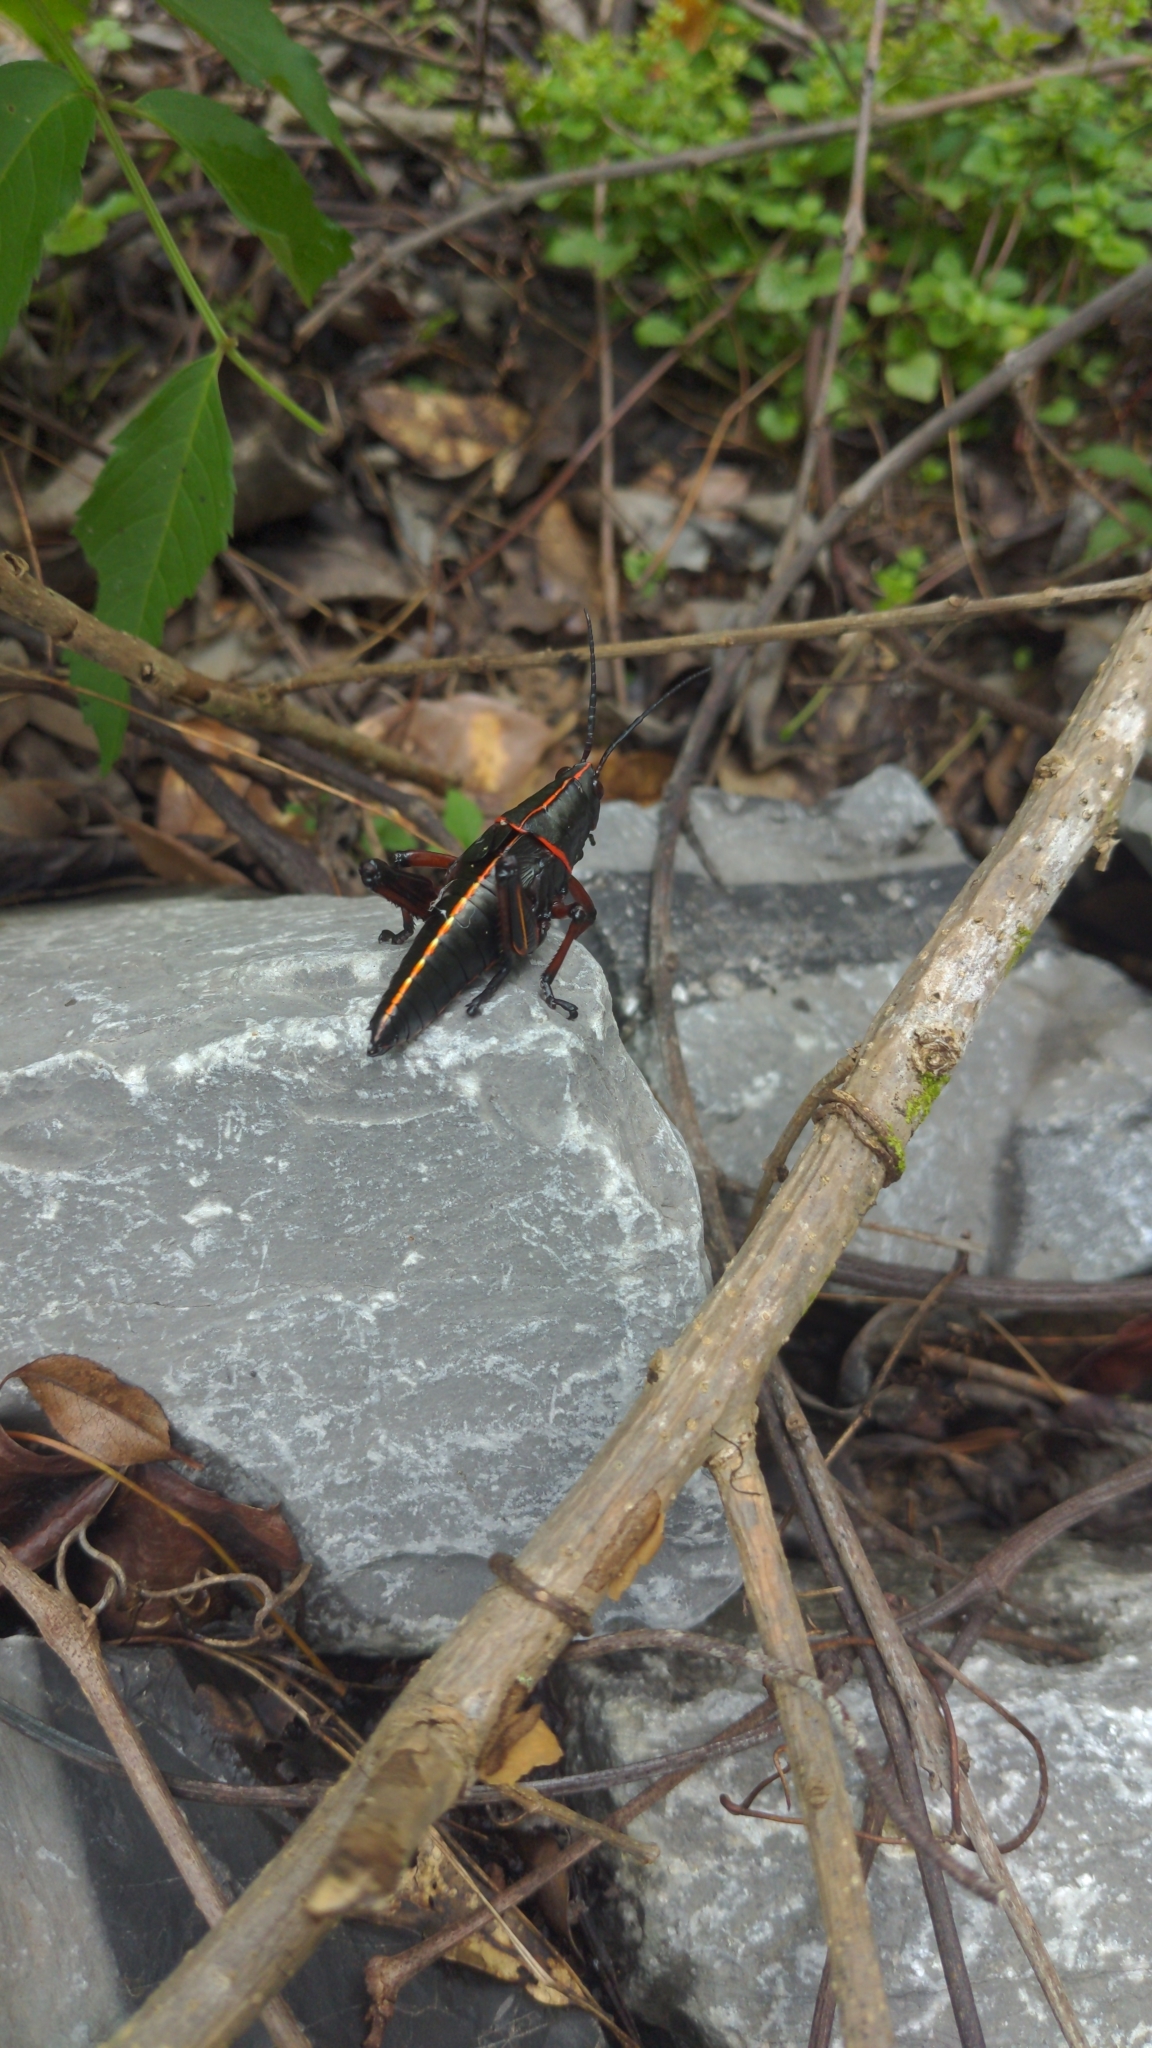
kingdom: Animalia
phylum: Arthropoda
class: Insecta
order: Orthoptera
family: Romaleidae
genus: Romalea
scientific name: Romalea microptera
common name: Eastern lubber grasshopper
